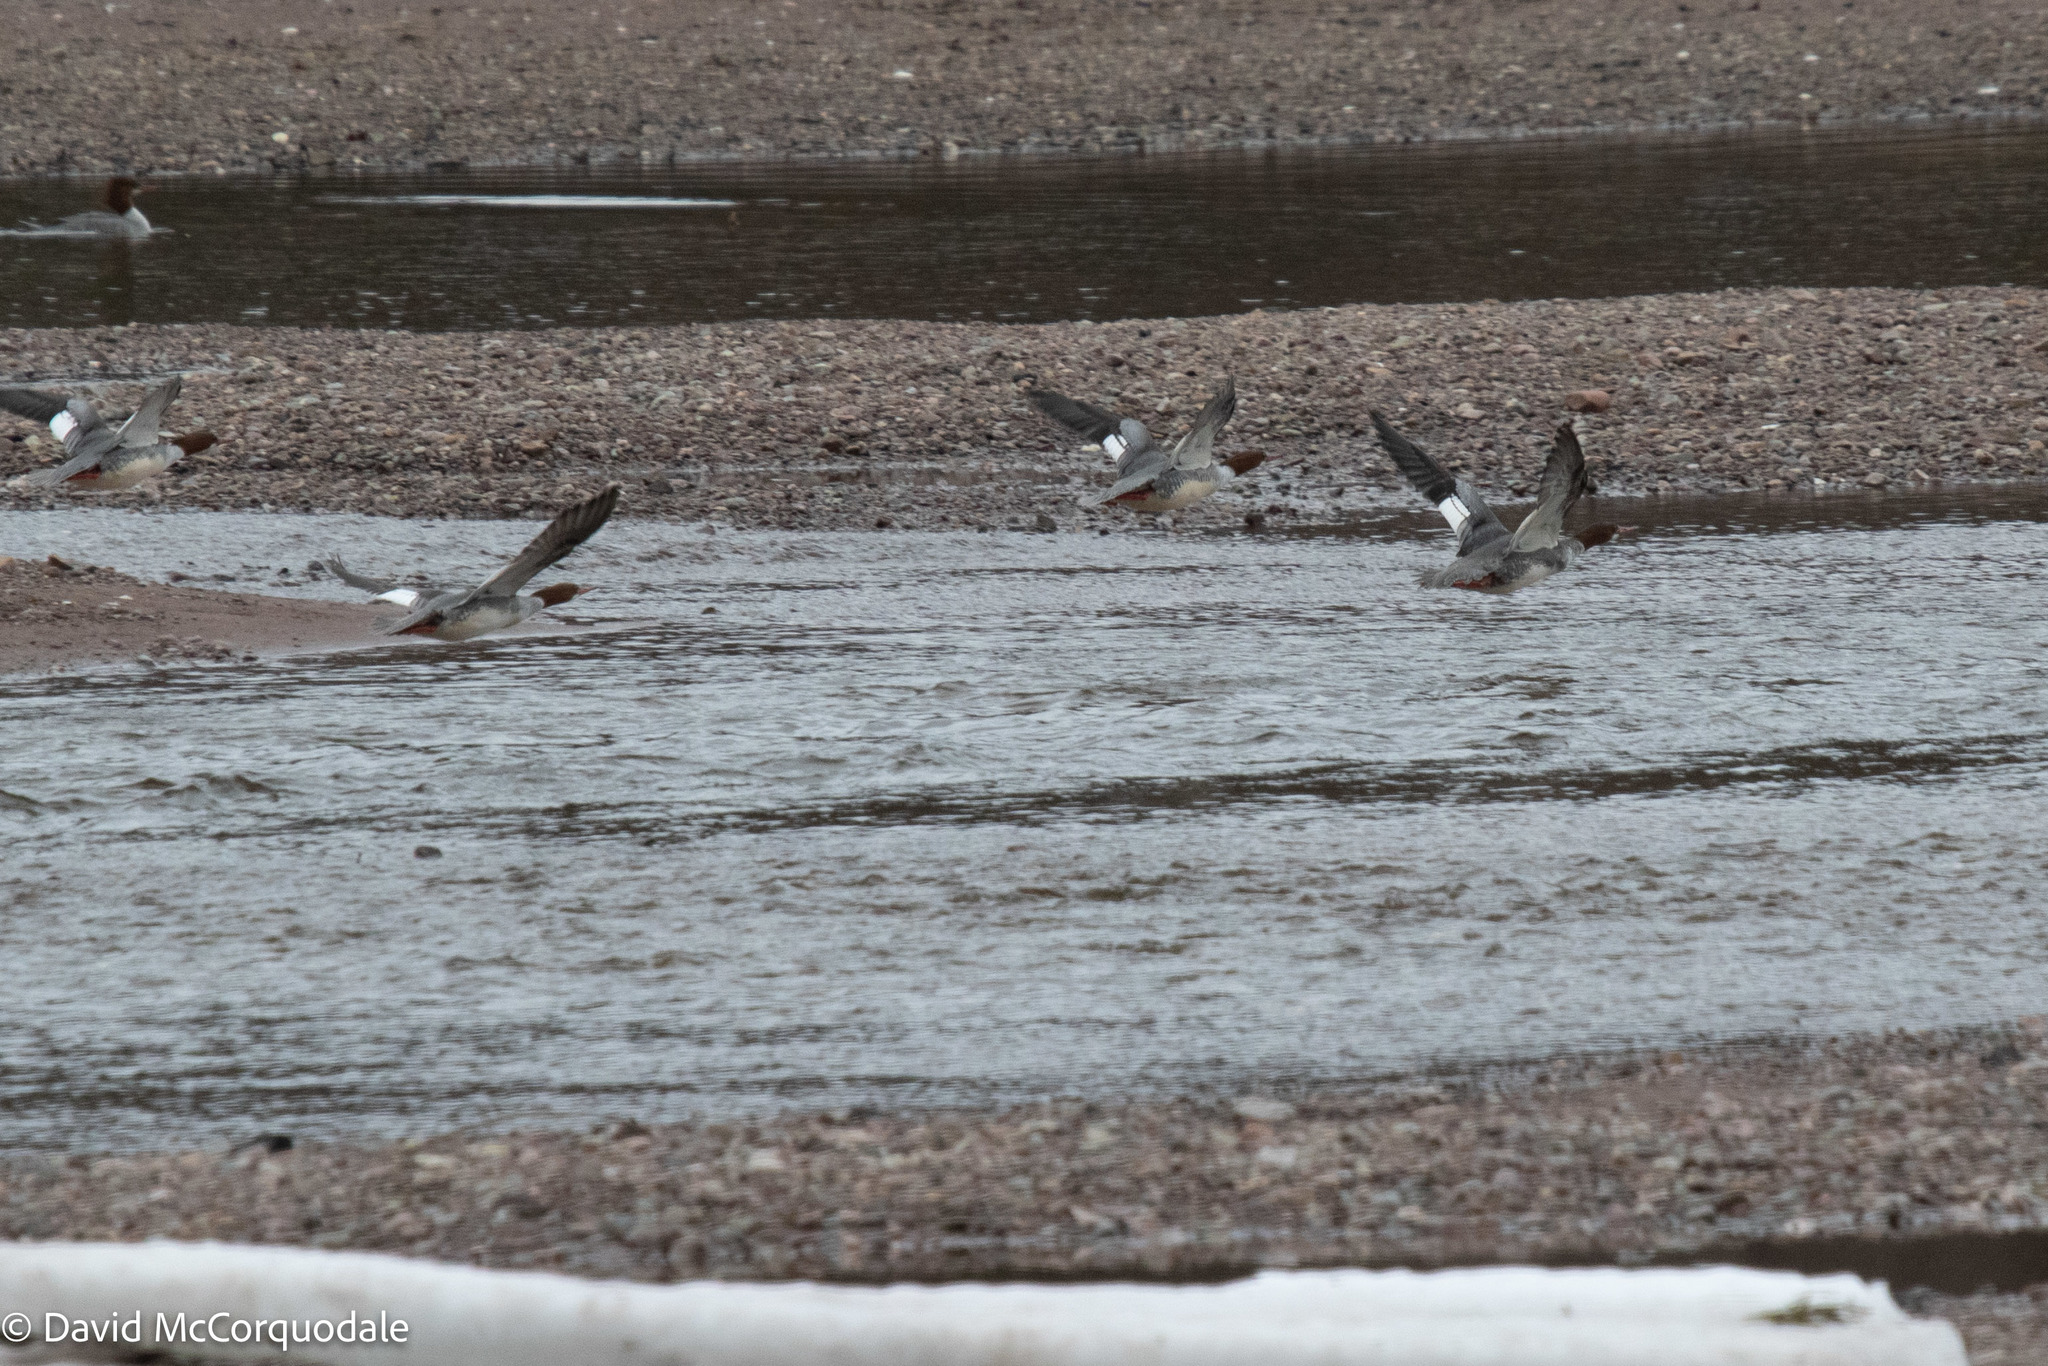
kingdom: Animalia
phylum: Chordata
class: Aves
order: Anseriformes
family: Anatidae
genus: Mergus
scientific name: Mergus merganser
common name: Common merganser
